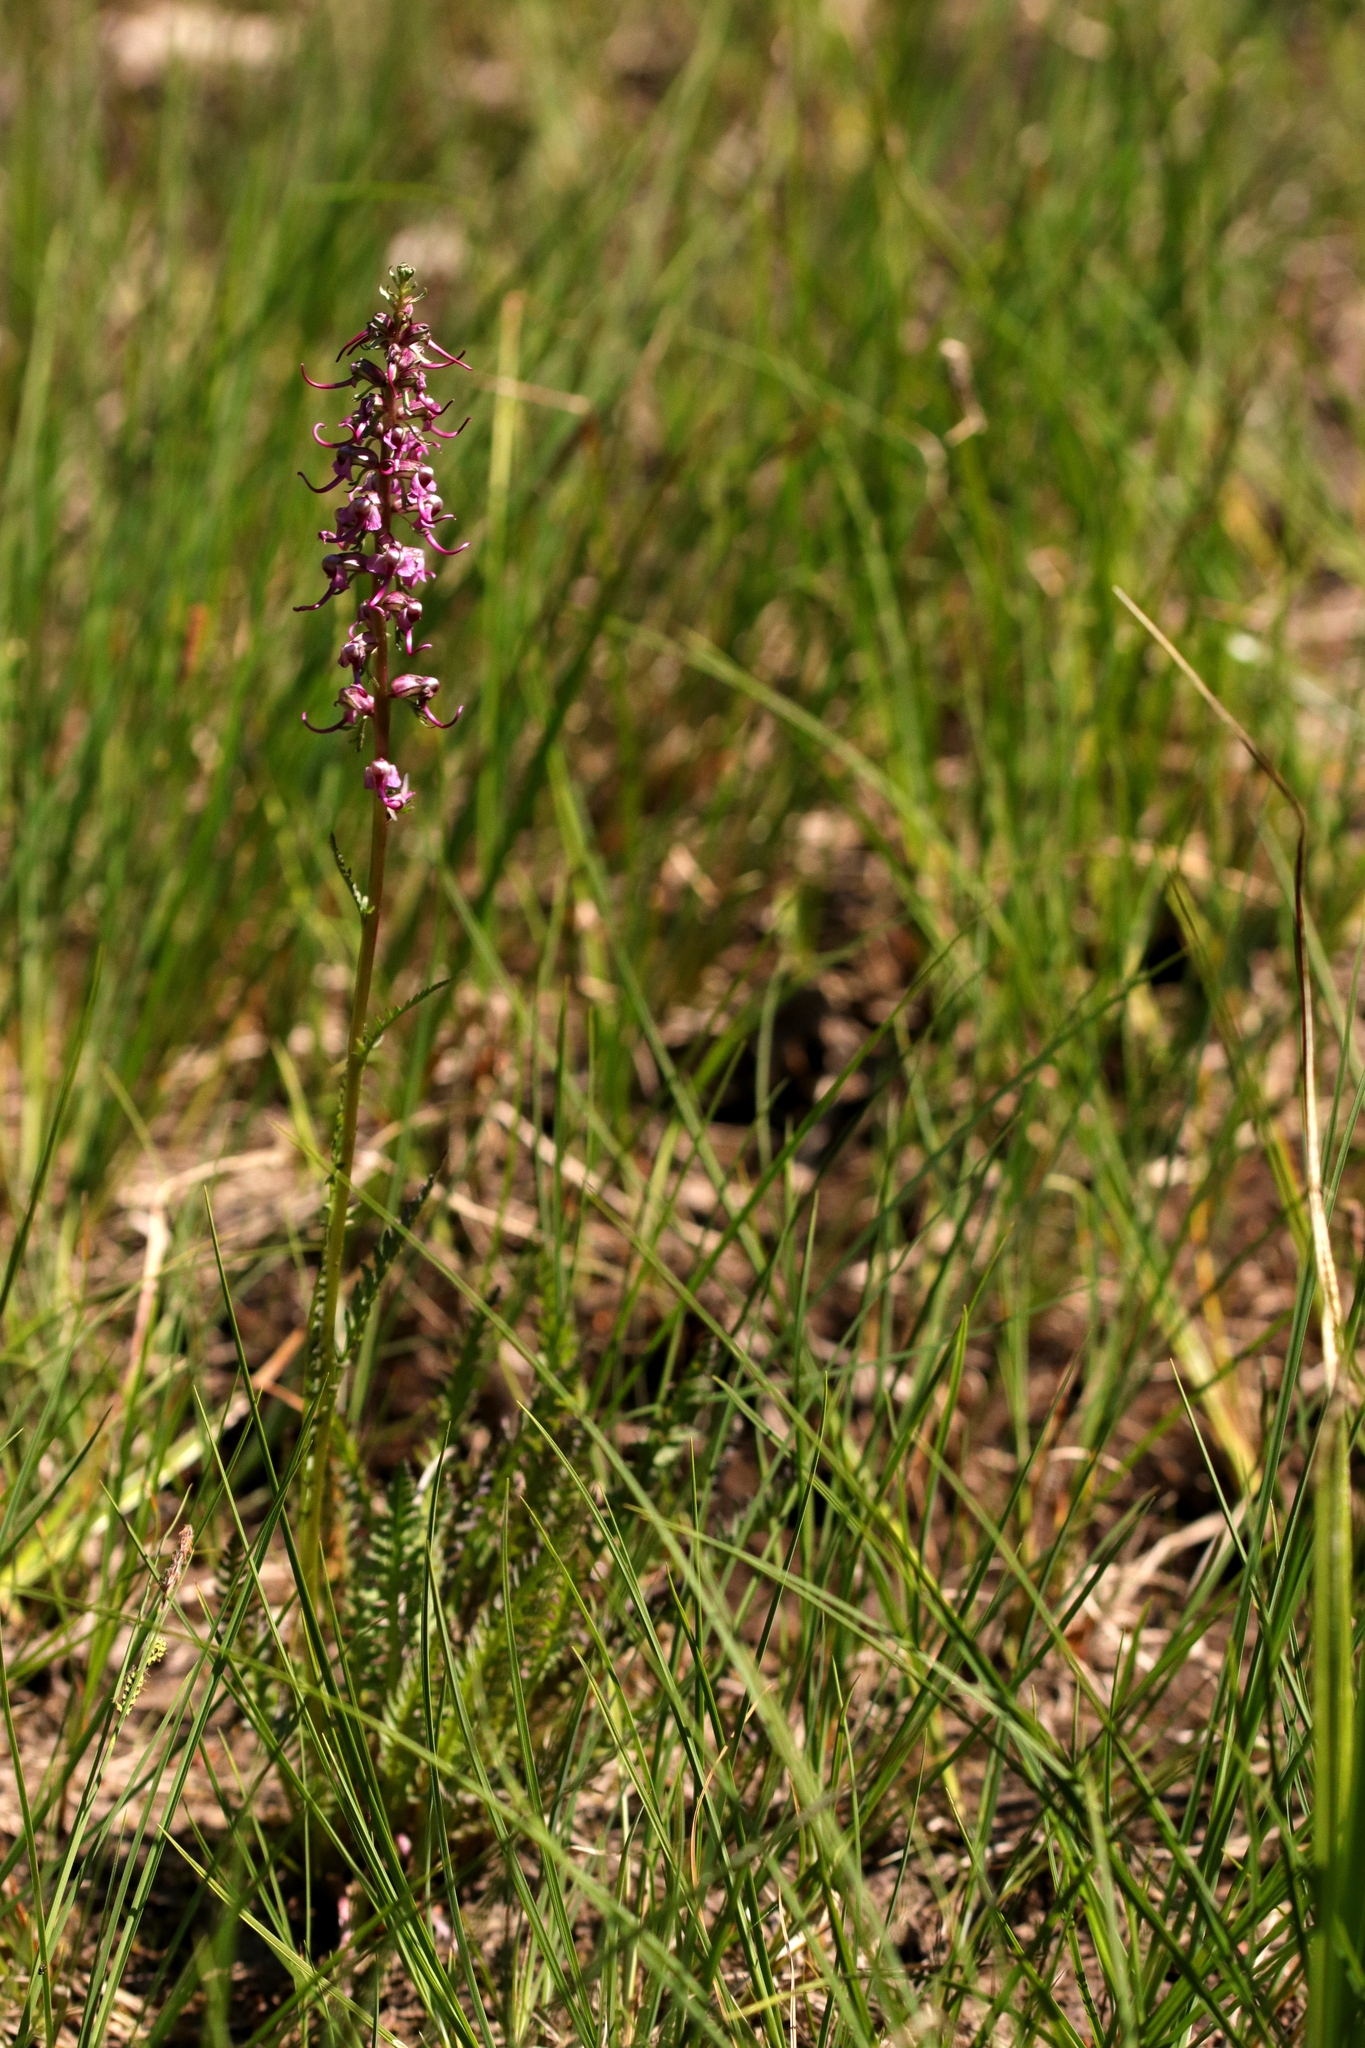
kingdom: Plantae
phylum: Tracheophyta
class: Magnoliopsida
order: Lamiales
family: Orobanchaceae
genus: Pedicularis
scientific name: Pedicularis groenlandica
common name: Elephant's-head
